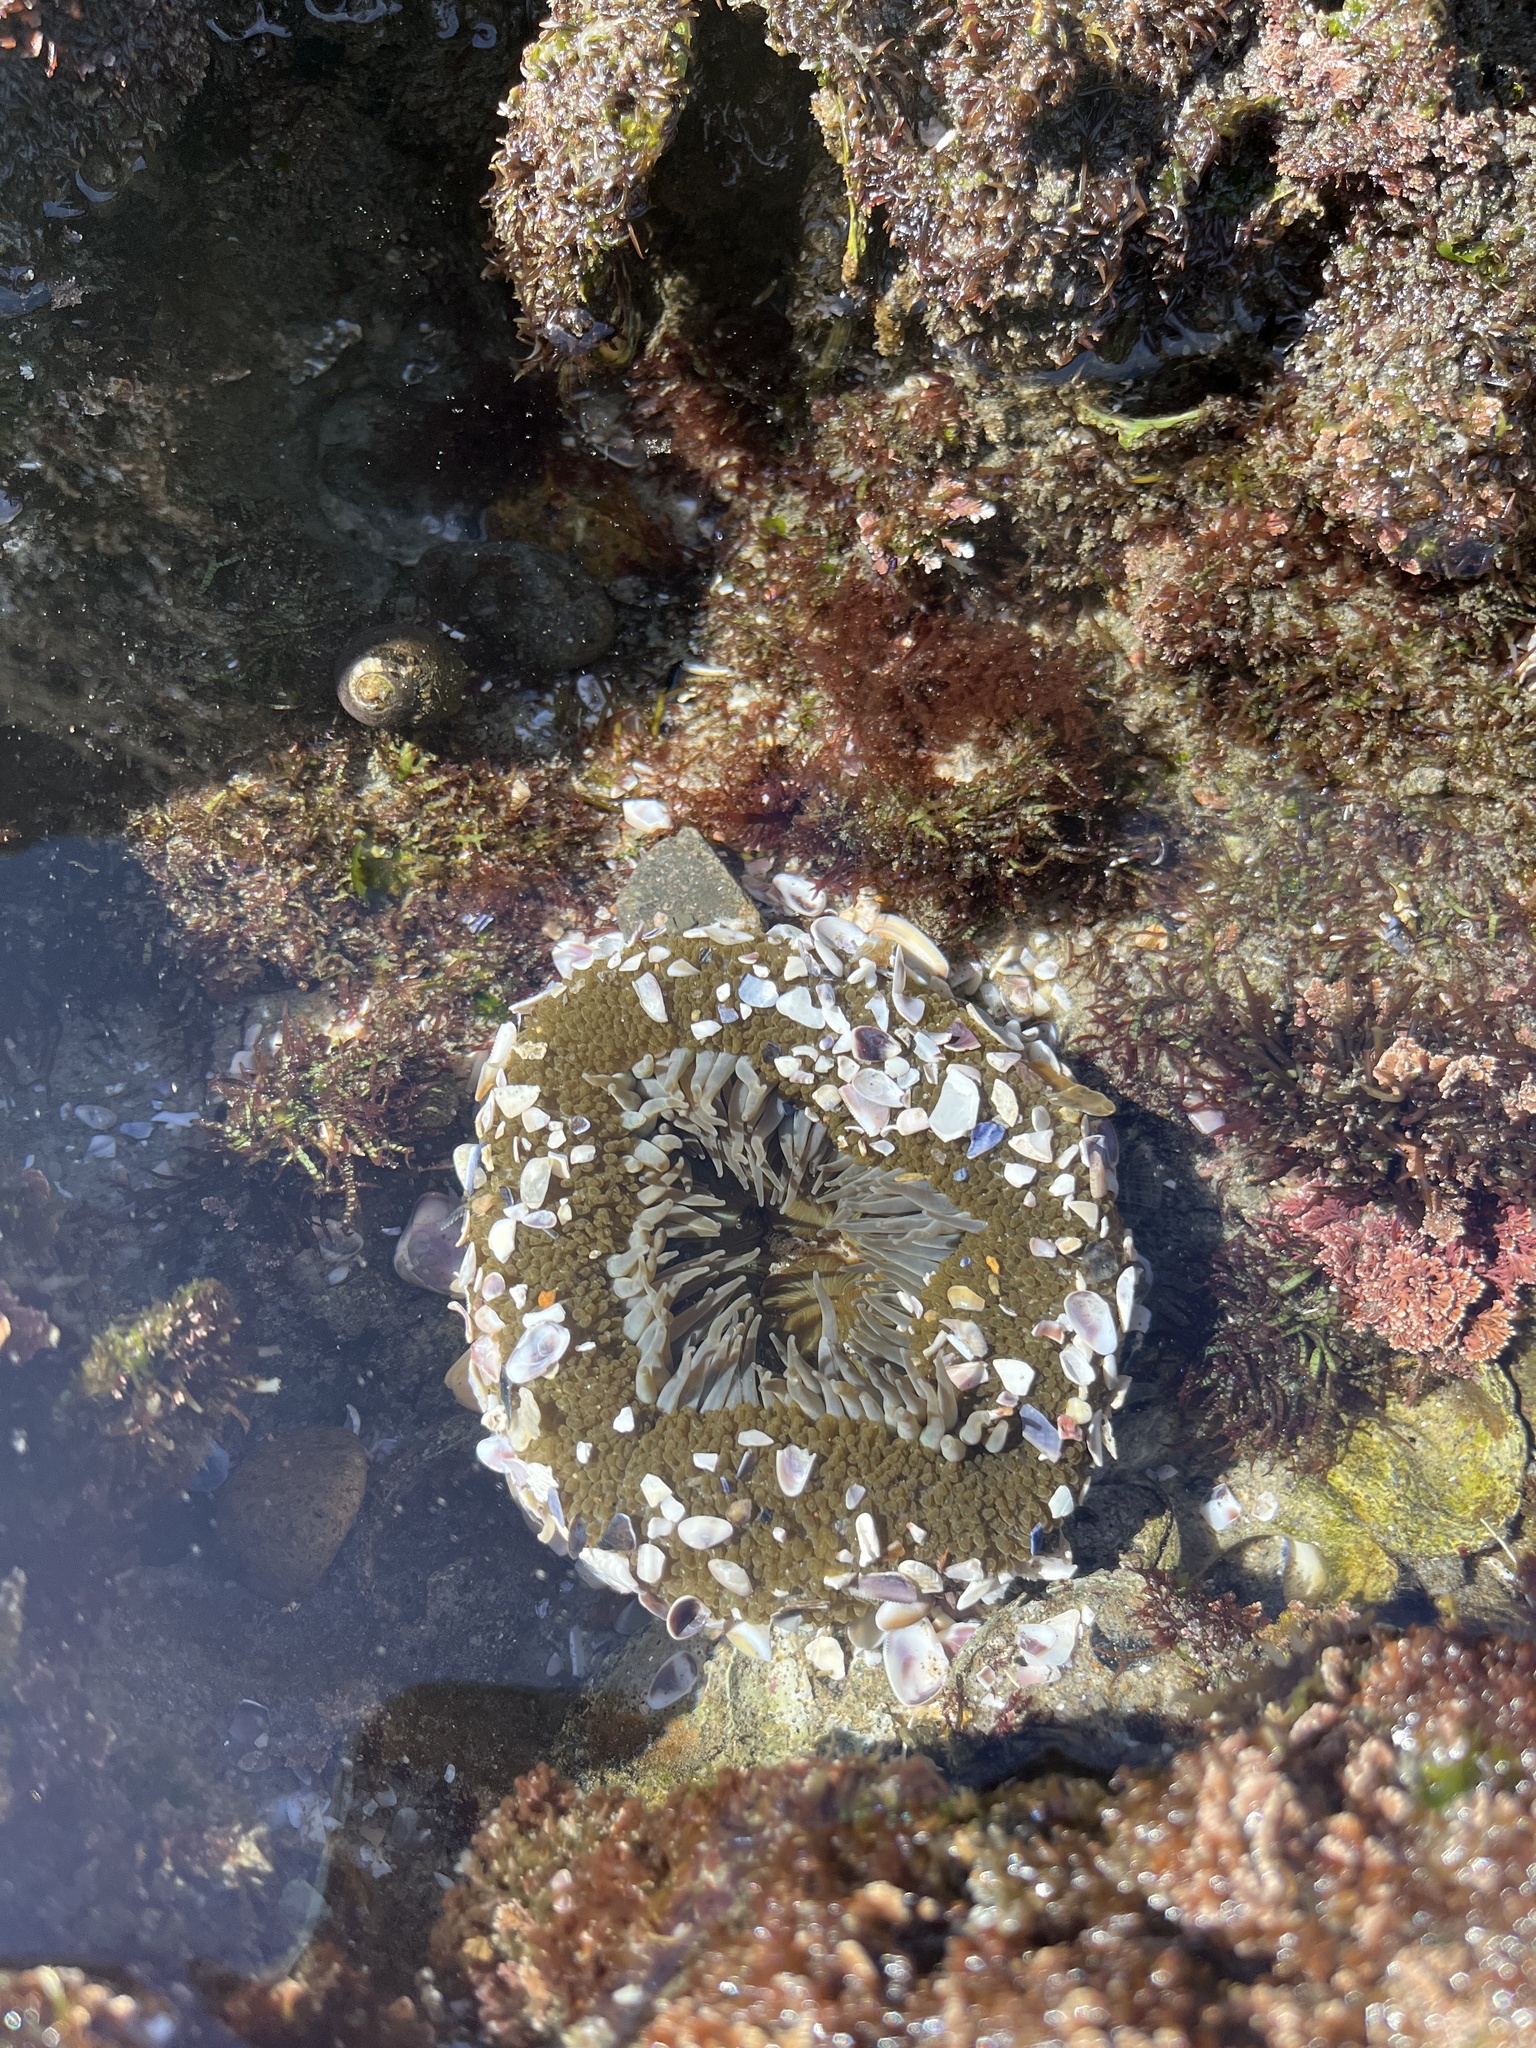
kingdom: Animalia
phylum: Cnidaria
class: Anthozoa
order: Actiniaria
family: Actiniidae
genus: Anthopleura
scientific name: Anthopleura sola
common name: Sun anemone
